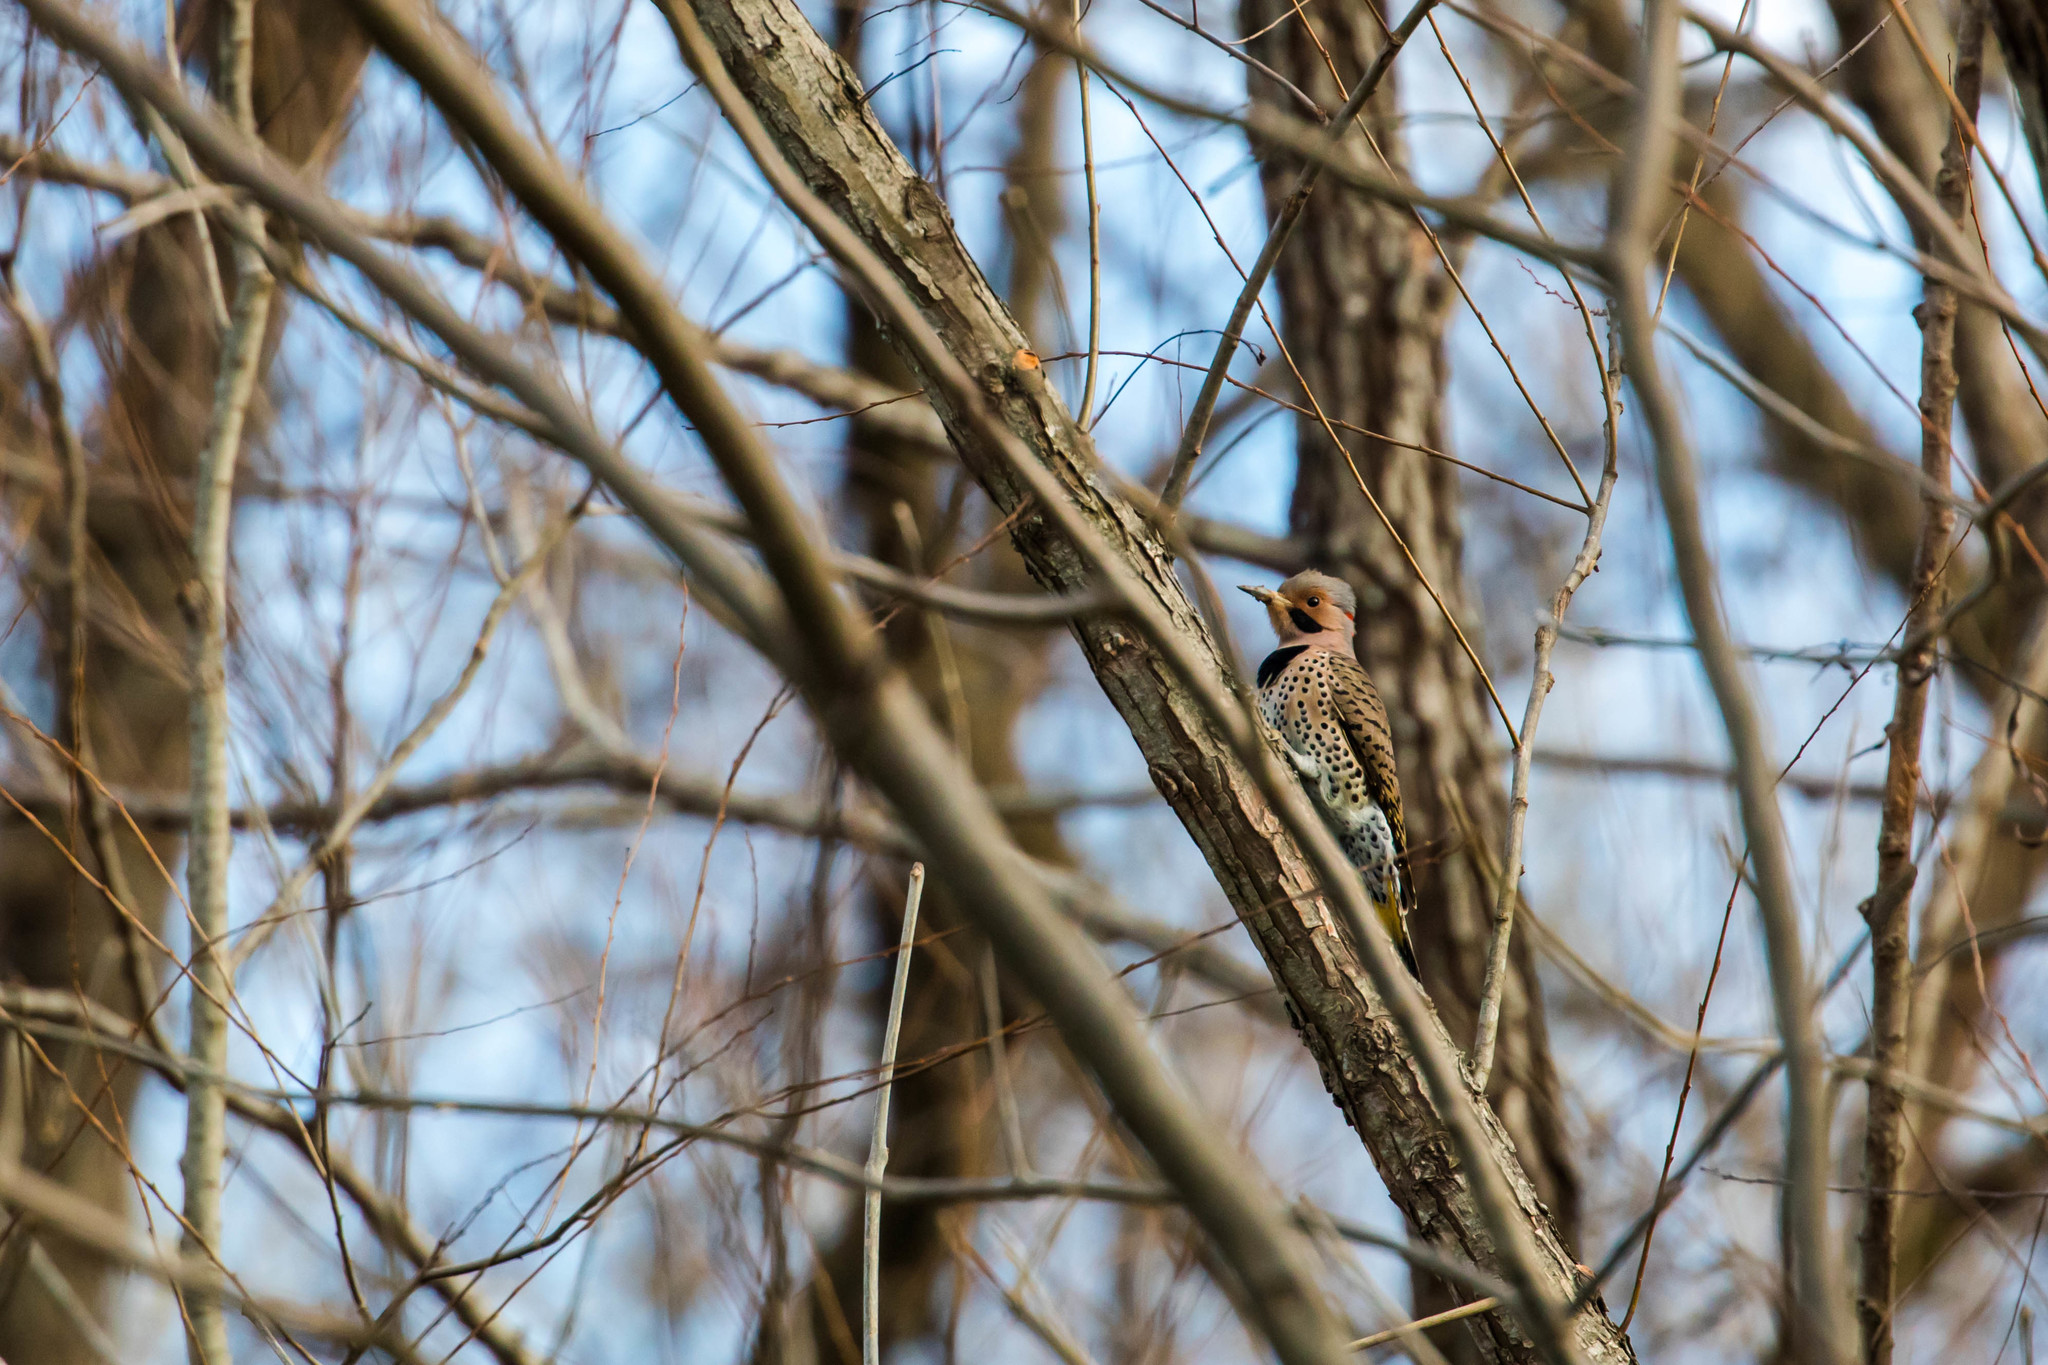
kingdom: Animalia
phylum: Chordata
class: Aves
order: Piciformes
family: Picidae
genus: Colaptes
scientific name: Colaptes auratus
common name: Northern flicker
